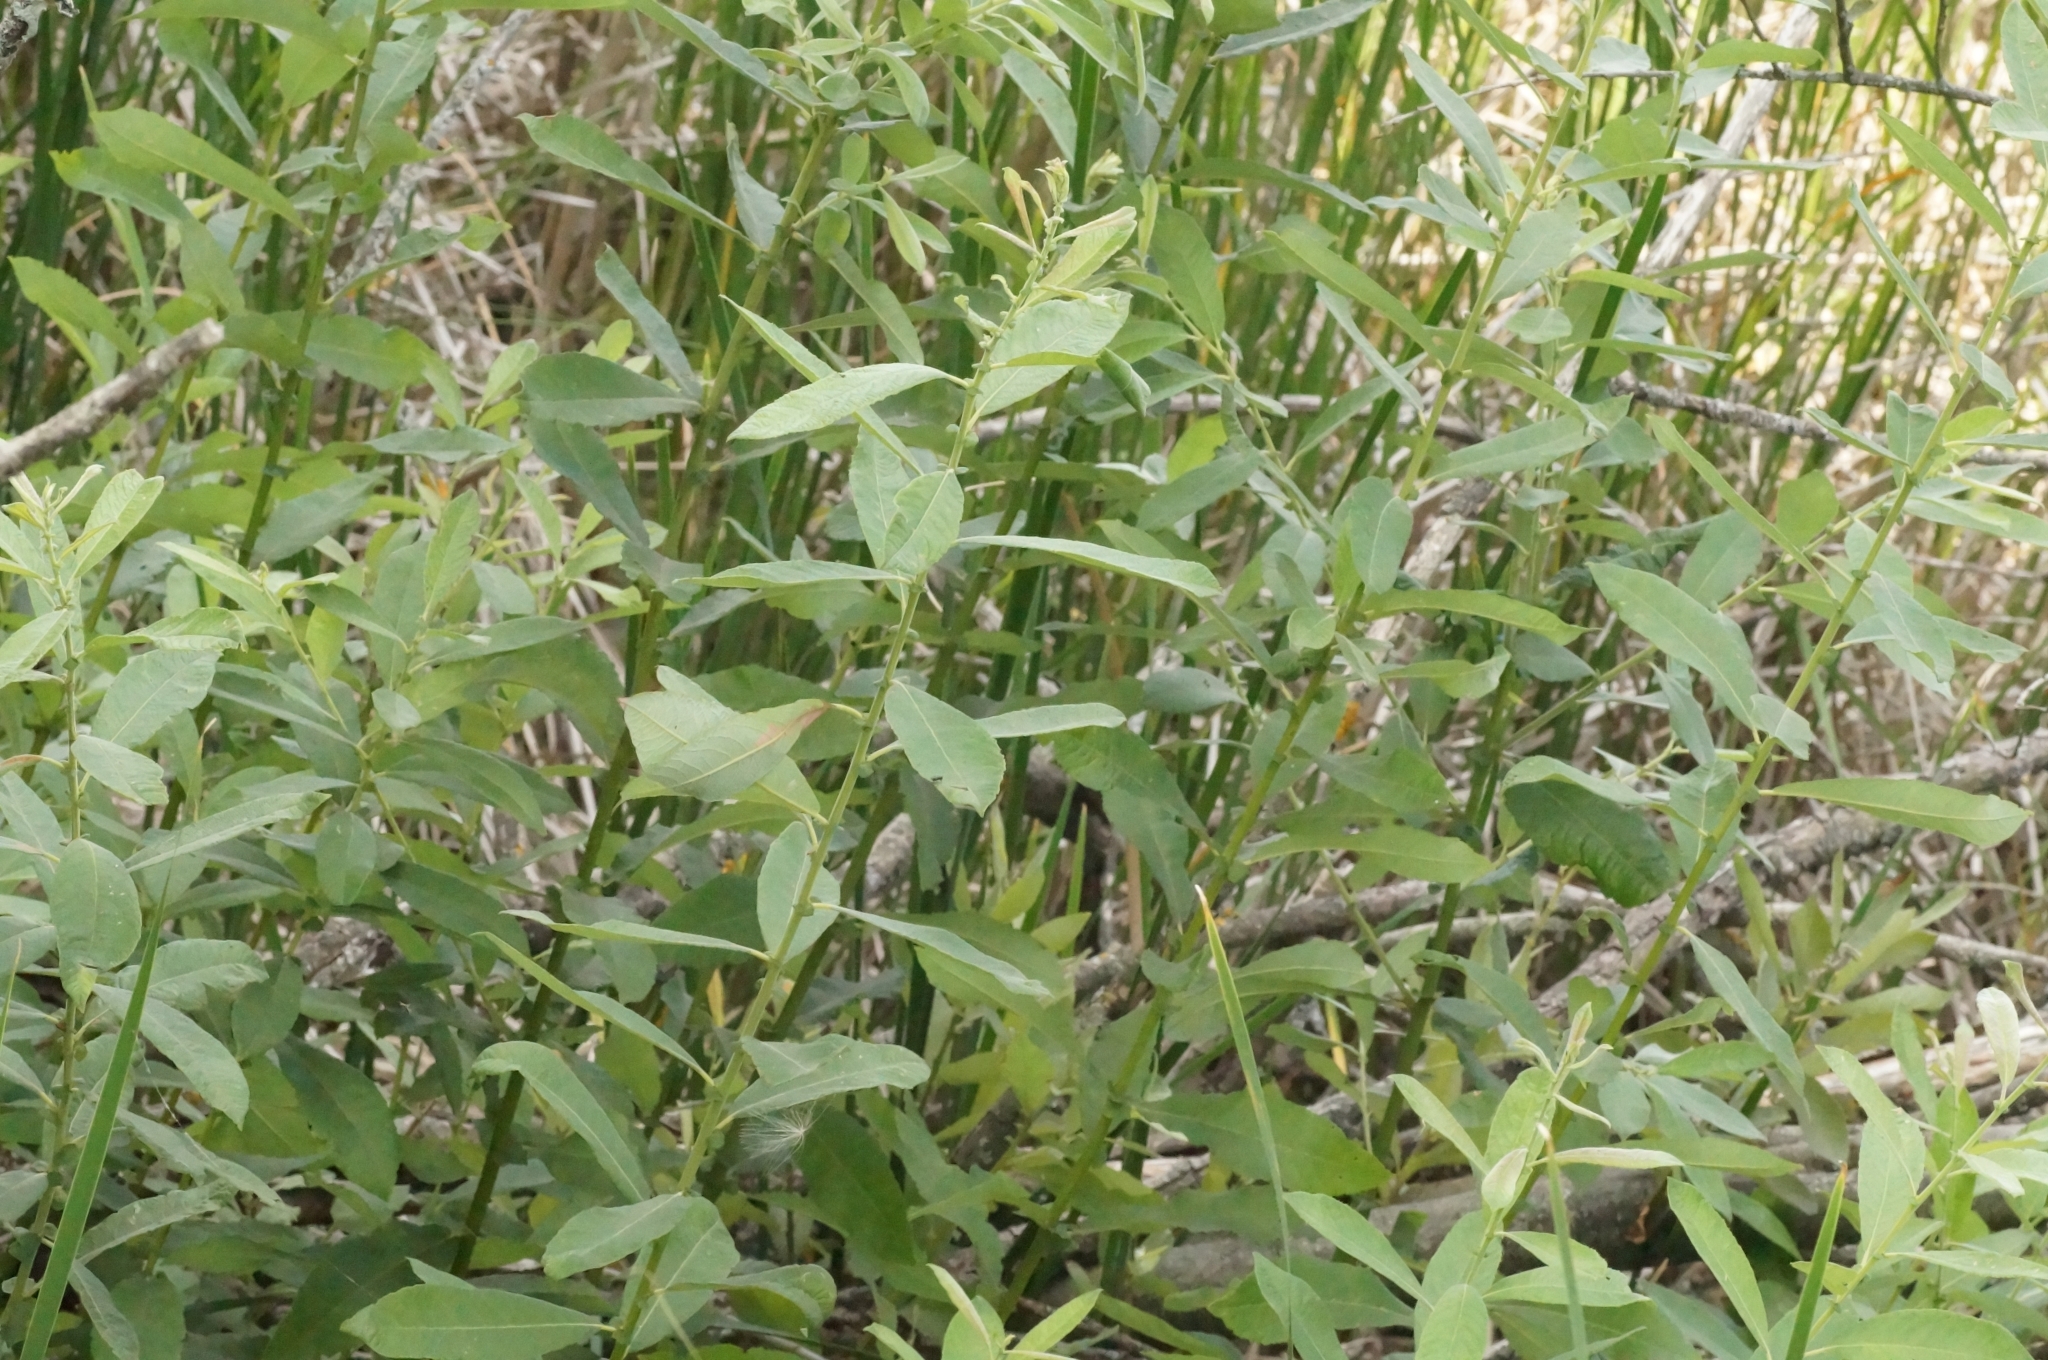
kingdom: Plantae
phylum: Tracheophyta
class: Magnoliopsida
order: Malpighiales
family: Salicaceae
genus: Salix
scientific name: Salix cinerea
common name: Common sallow
